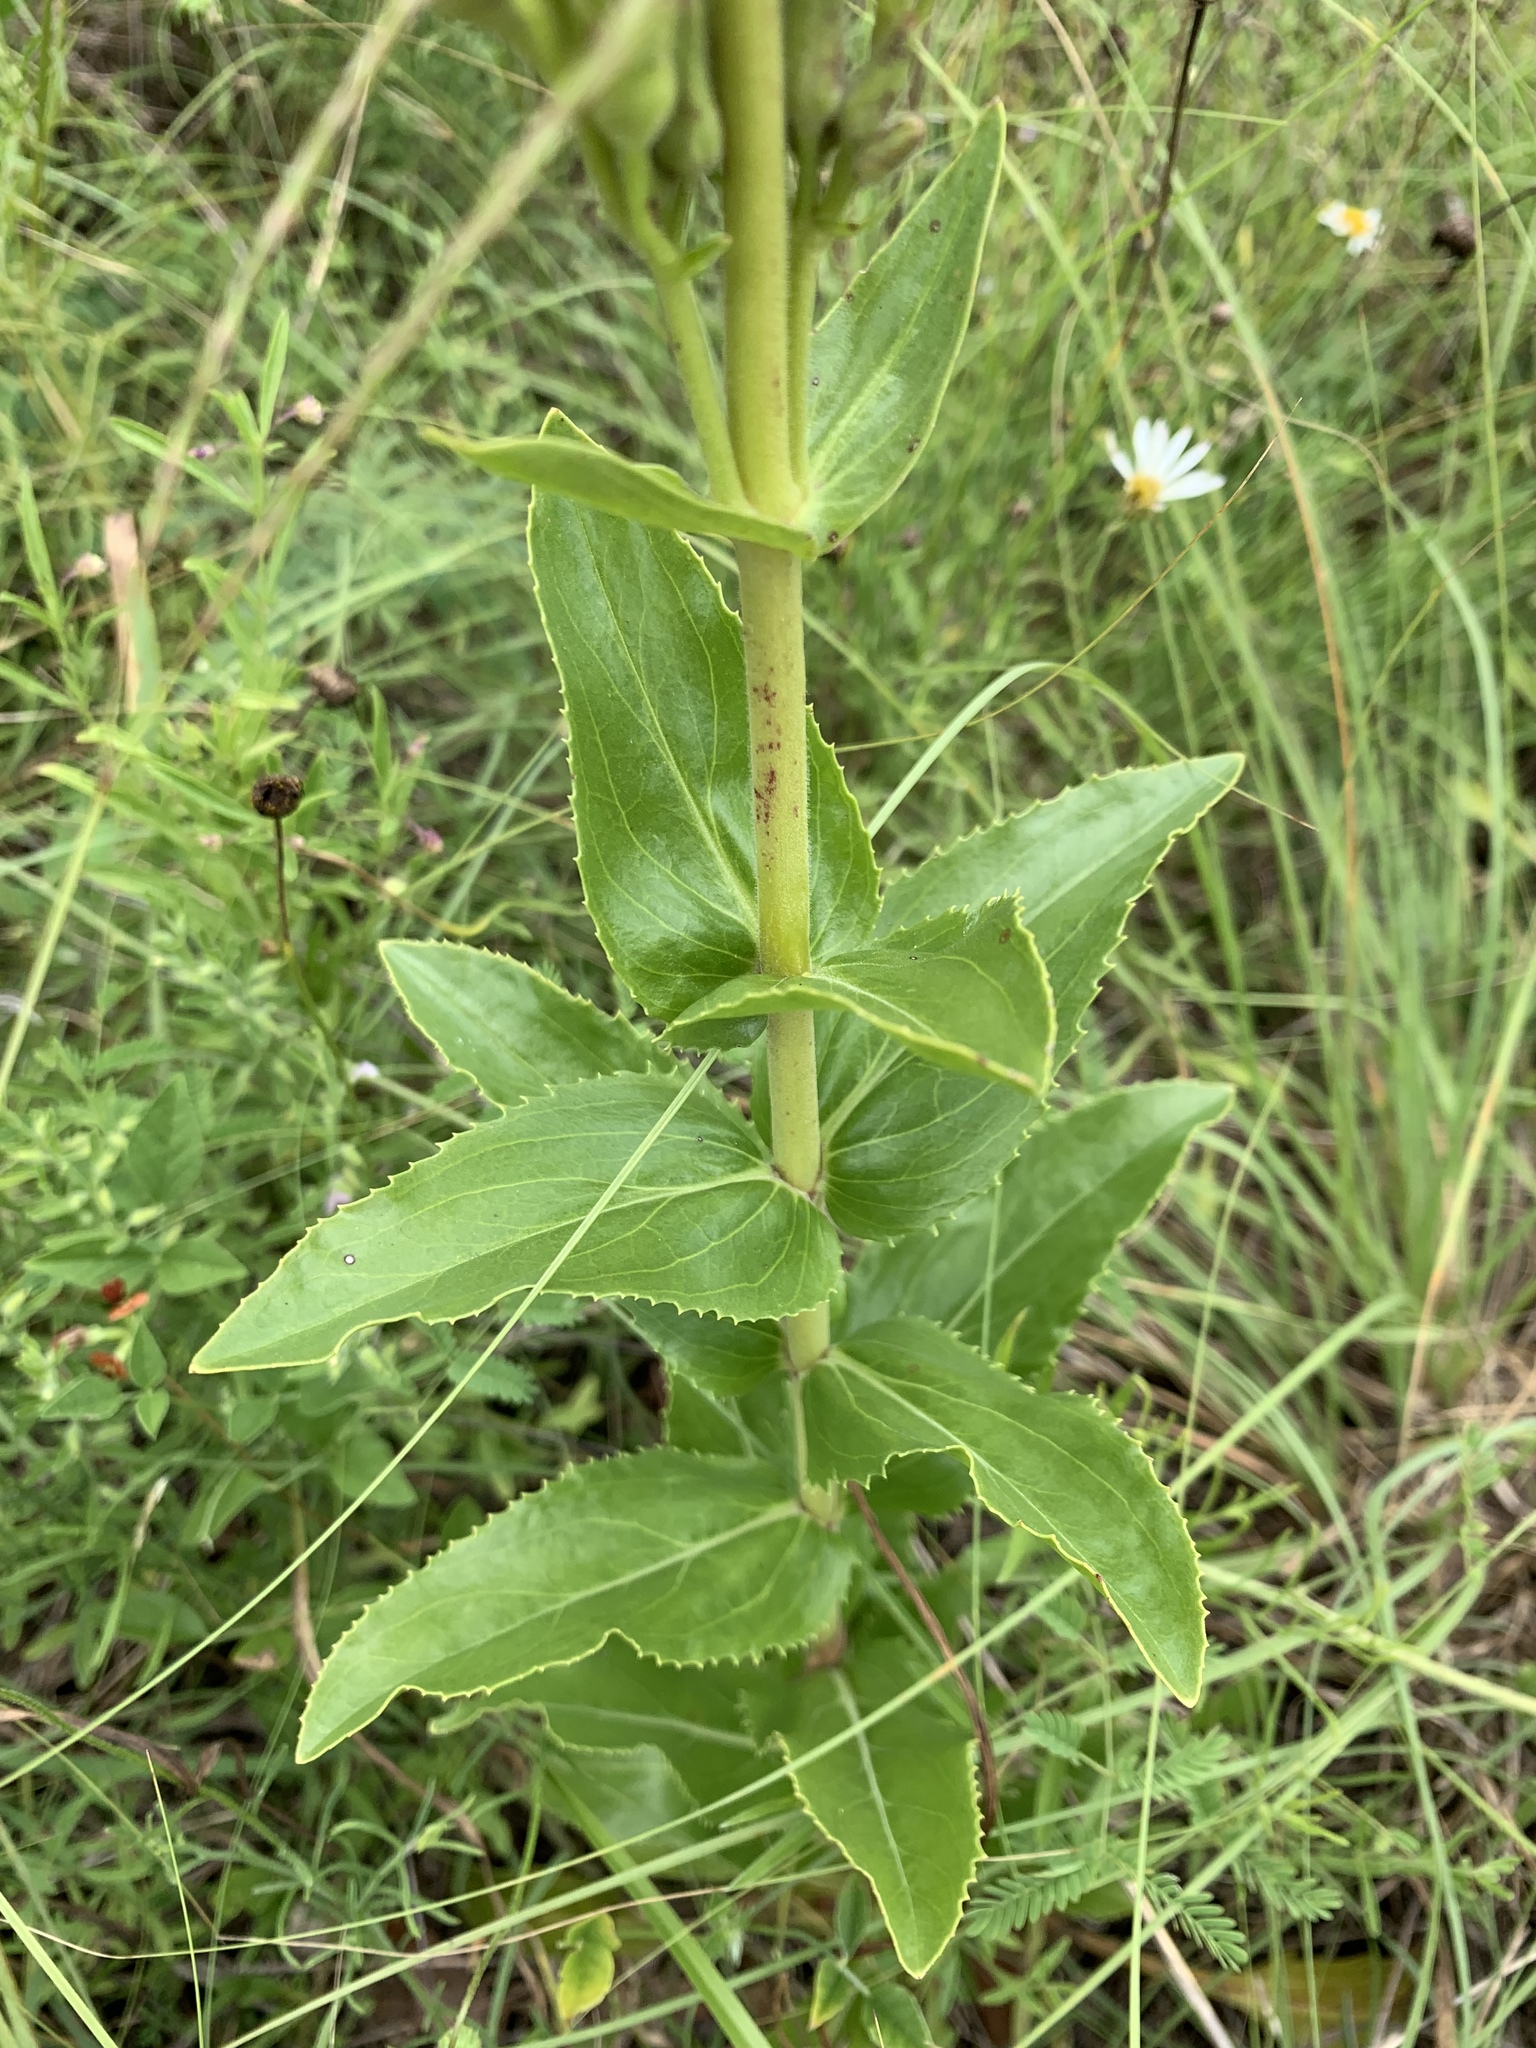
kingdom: Plantae
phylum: Tracheophyta
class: Magnoliopsida
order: Lamiales
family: Plantaginaceae
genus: Penstemon
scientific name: Penstemon cobaea
